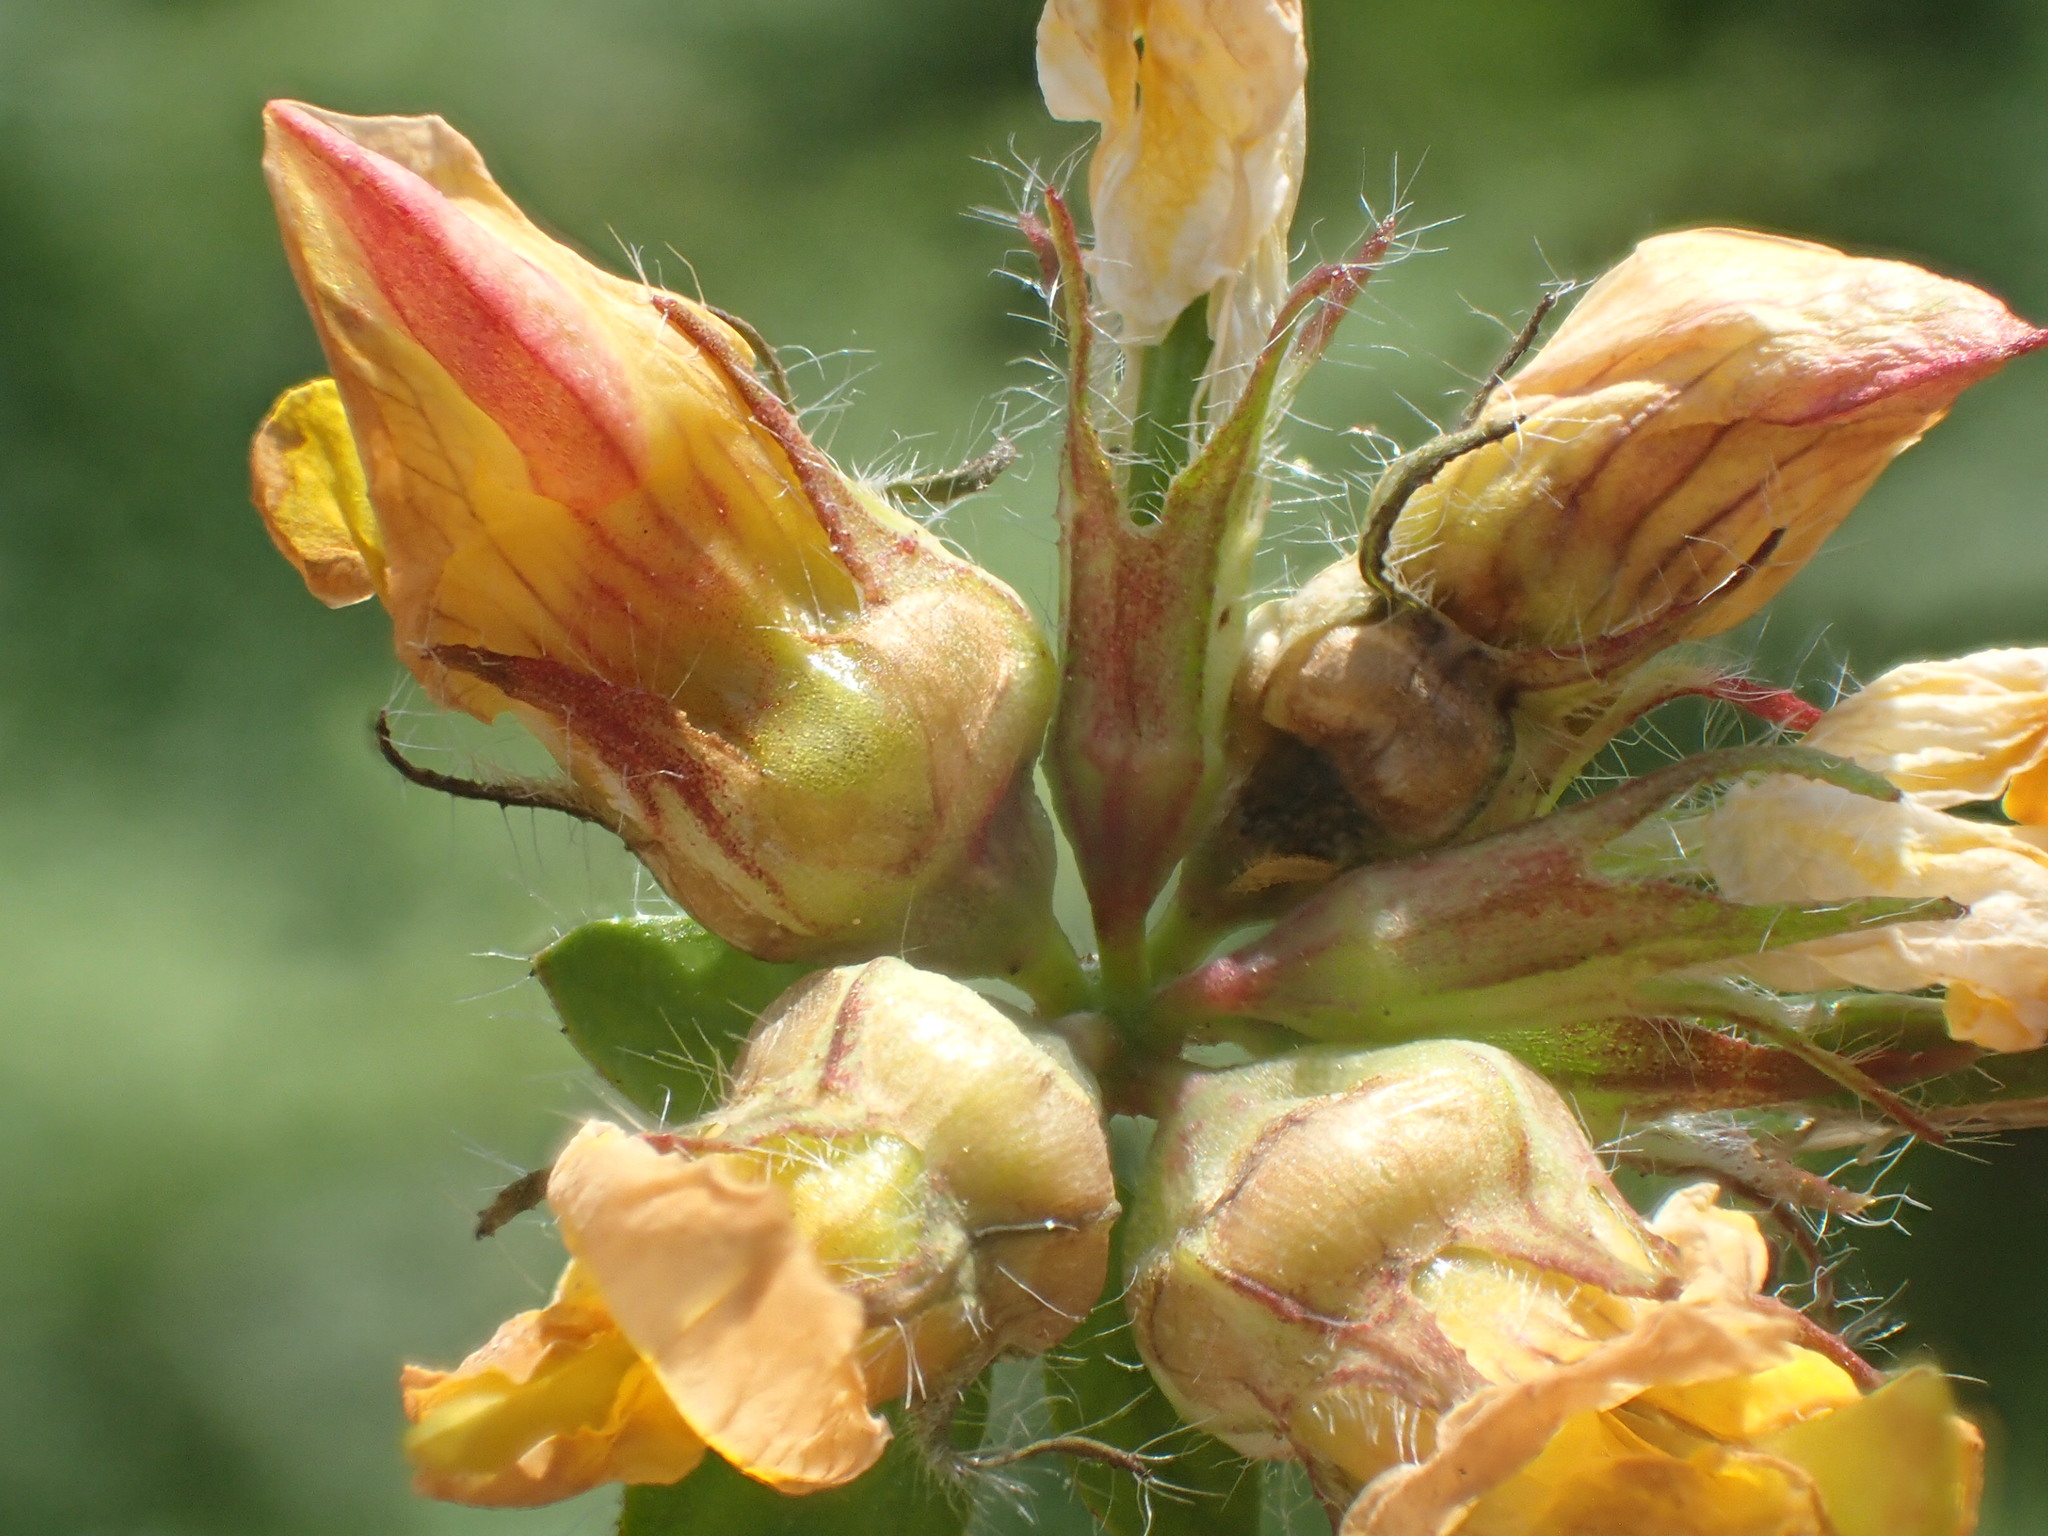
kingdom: Animalia
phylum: Arthropoda
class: Insecta
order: Diptera
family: Cecidomyiidae
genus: Contarinia
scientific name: Contarinia loti
